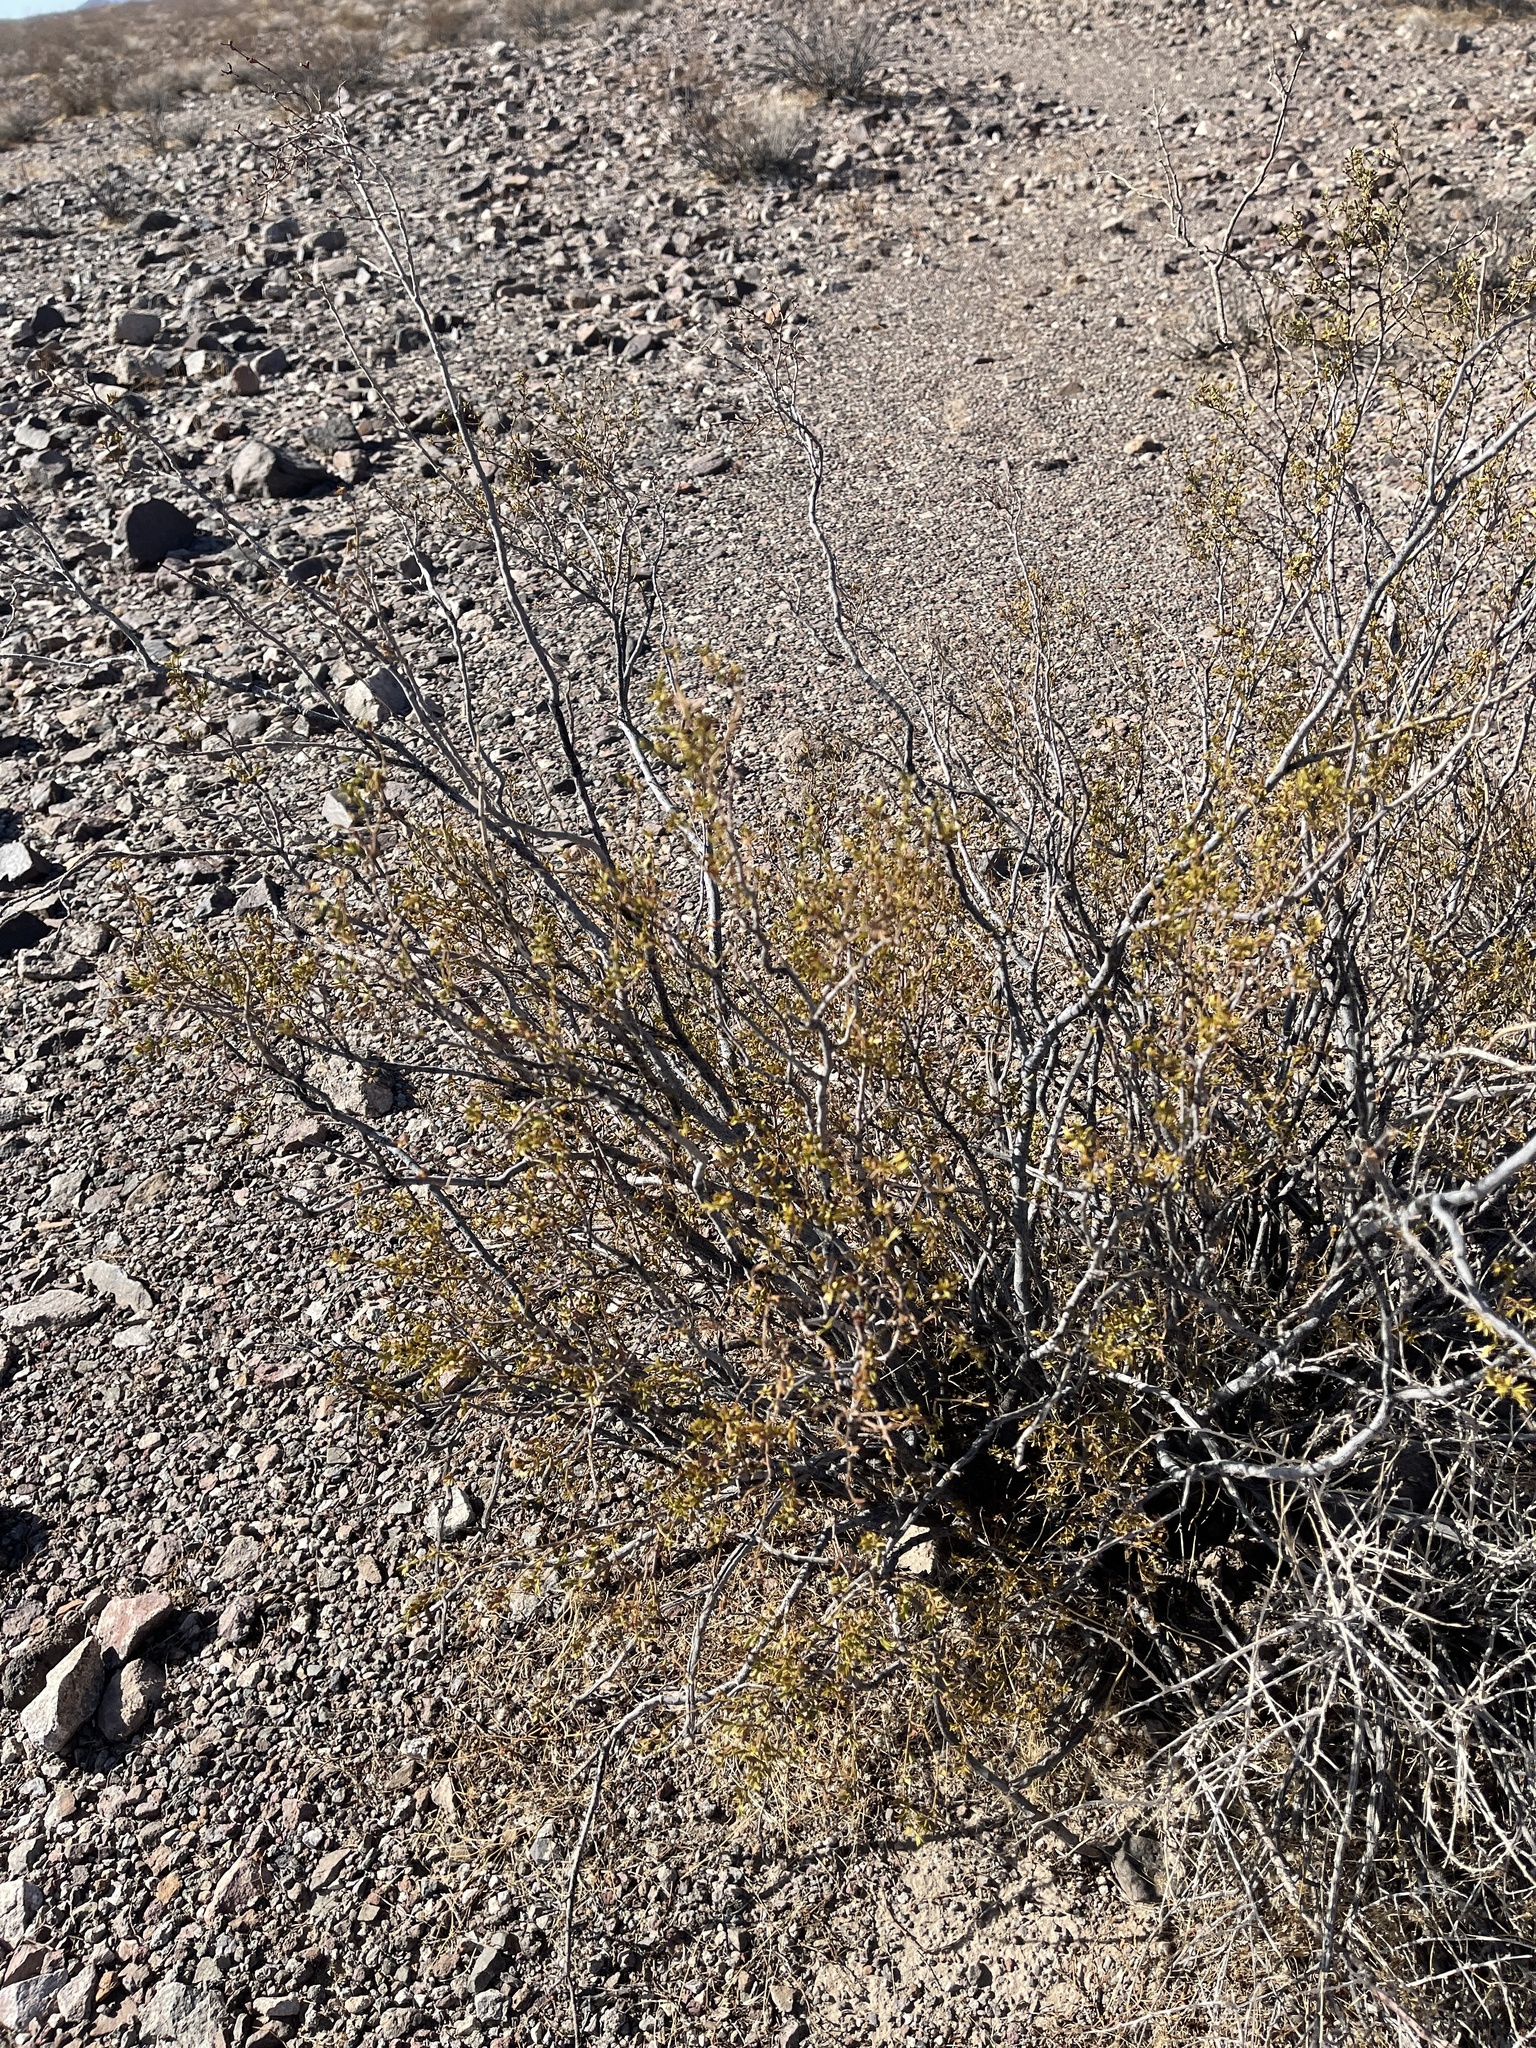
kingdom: Plantae
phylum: Tracheophyta
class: Magnoliopsida
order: Zygophyllales
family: Zygophyllaceae
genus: Larrea
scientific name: Larrea tridentata
